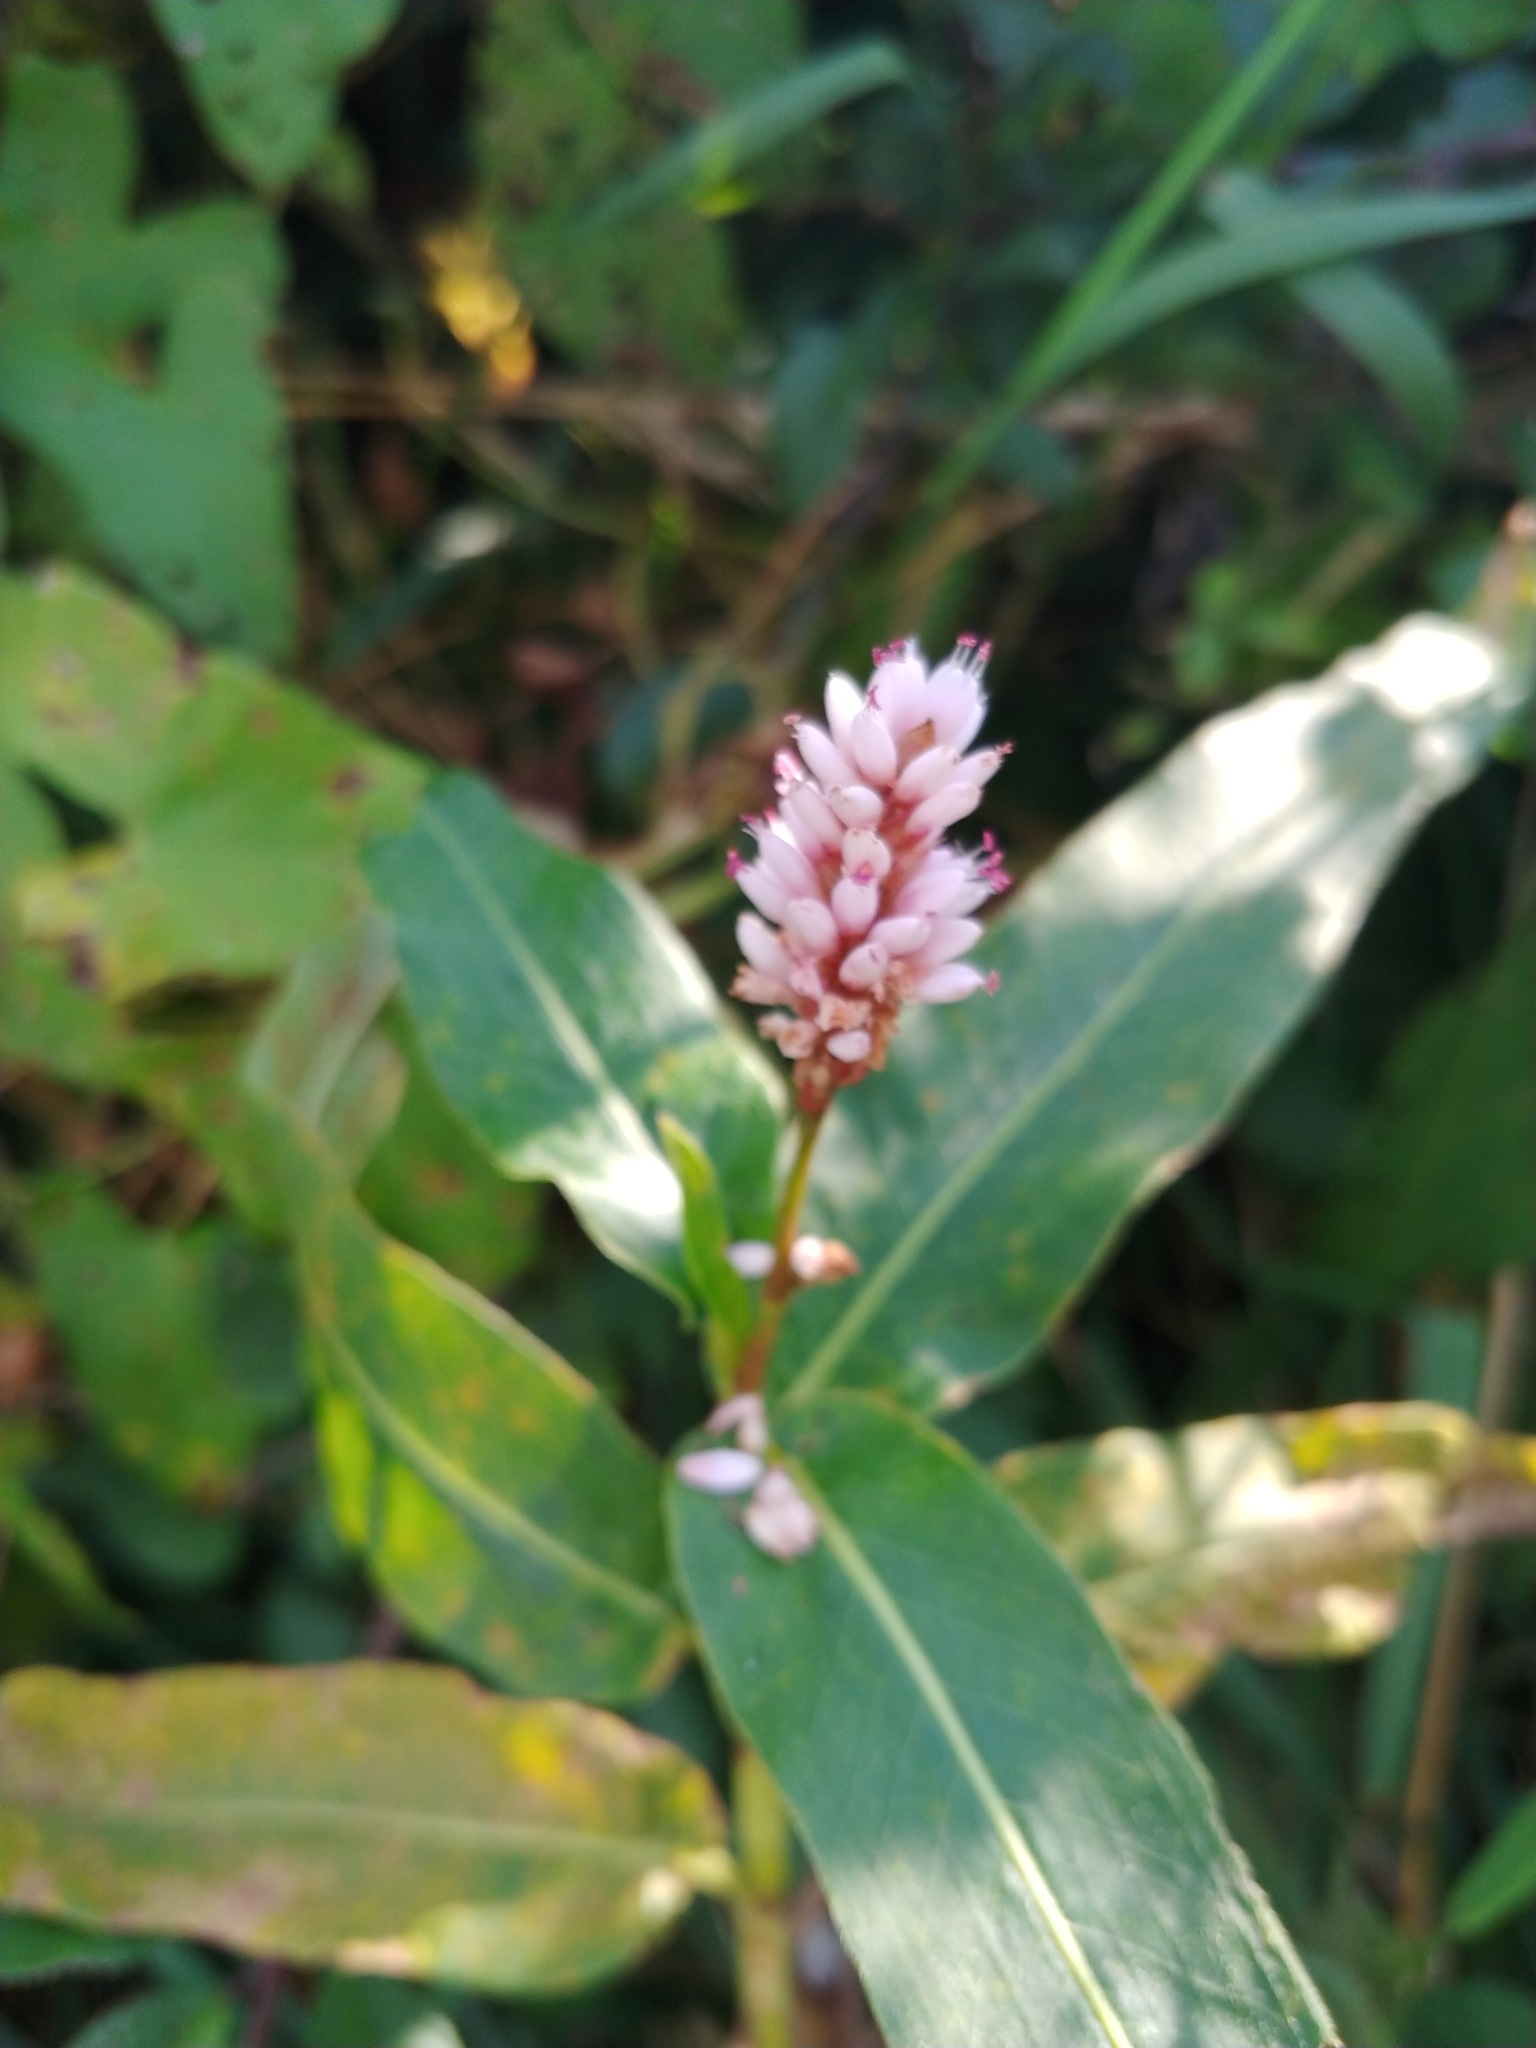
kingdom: Plantae
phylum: Tracheophyta
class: Magnoliopsida
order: Caryophyllales
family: Polygonaceae
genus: Persicaria
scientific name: Persicaria amphibia
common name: Amphibious bistort
